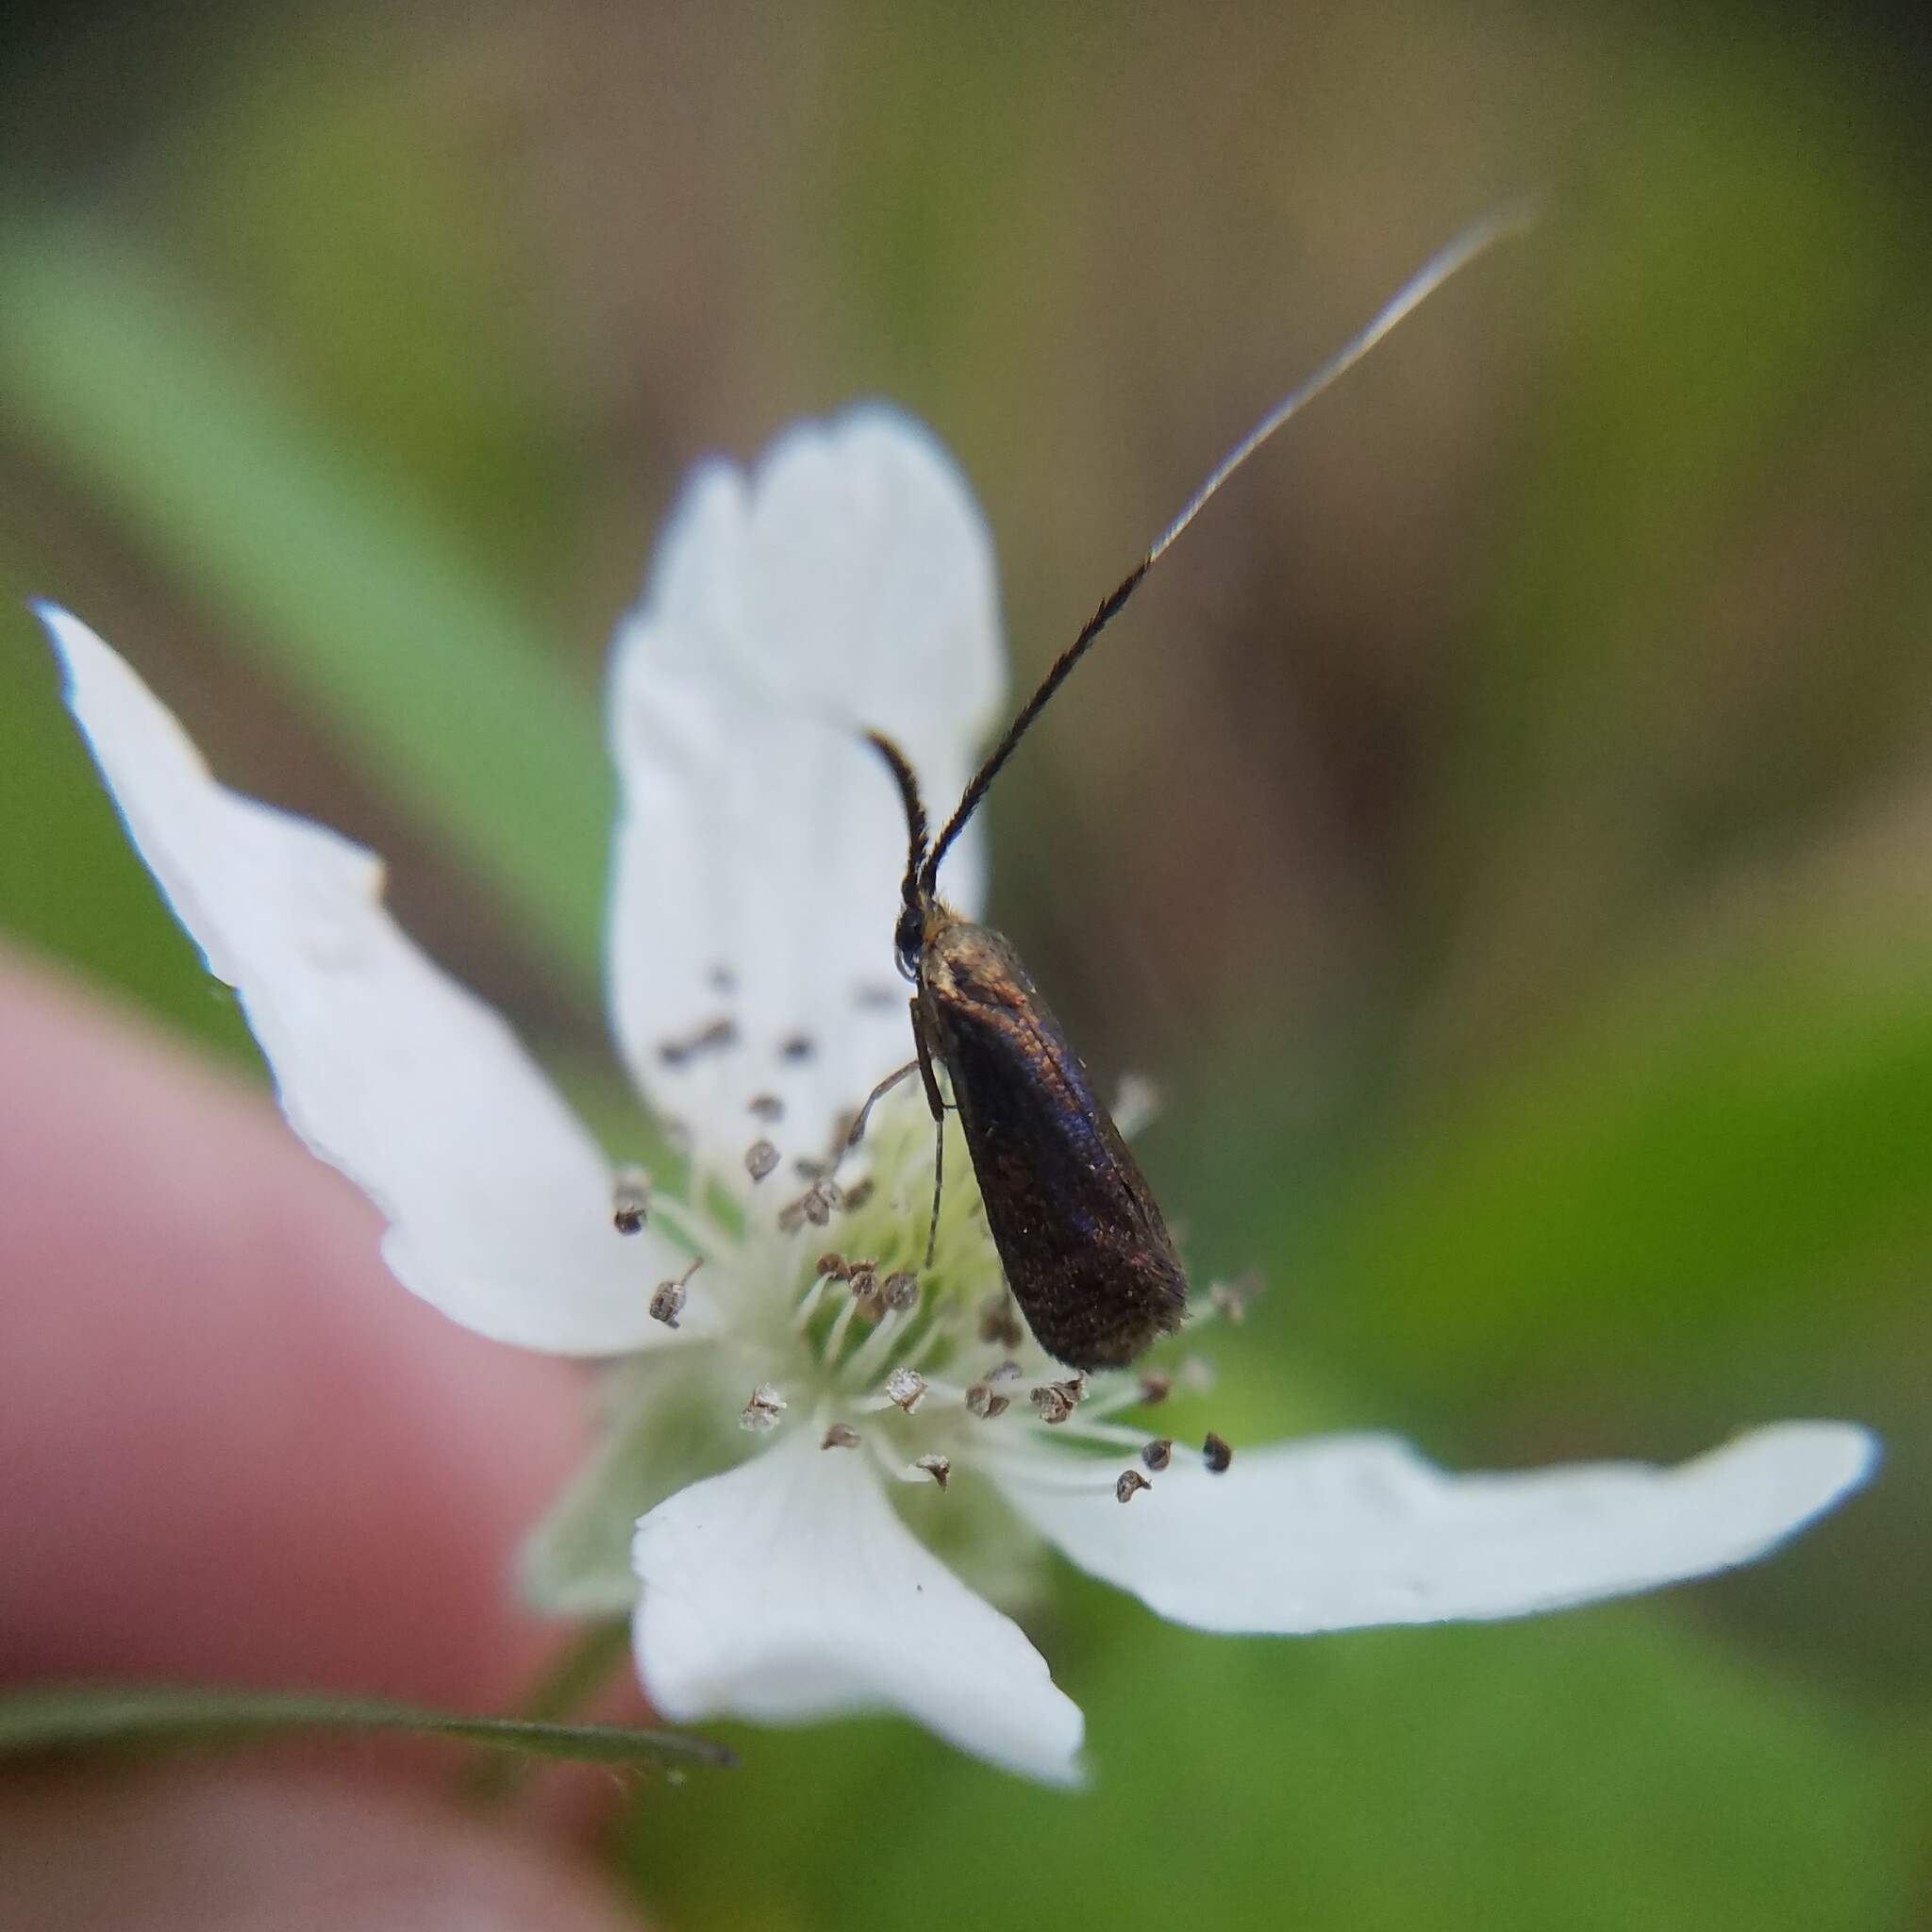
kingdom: Animalia
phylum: Arthropoda
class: Insecta
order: Lepidoptera
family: Adelidae
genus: Adela
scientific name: Adela caeruleella
